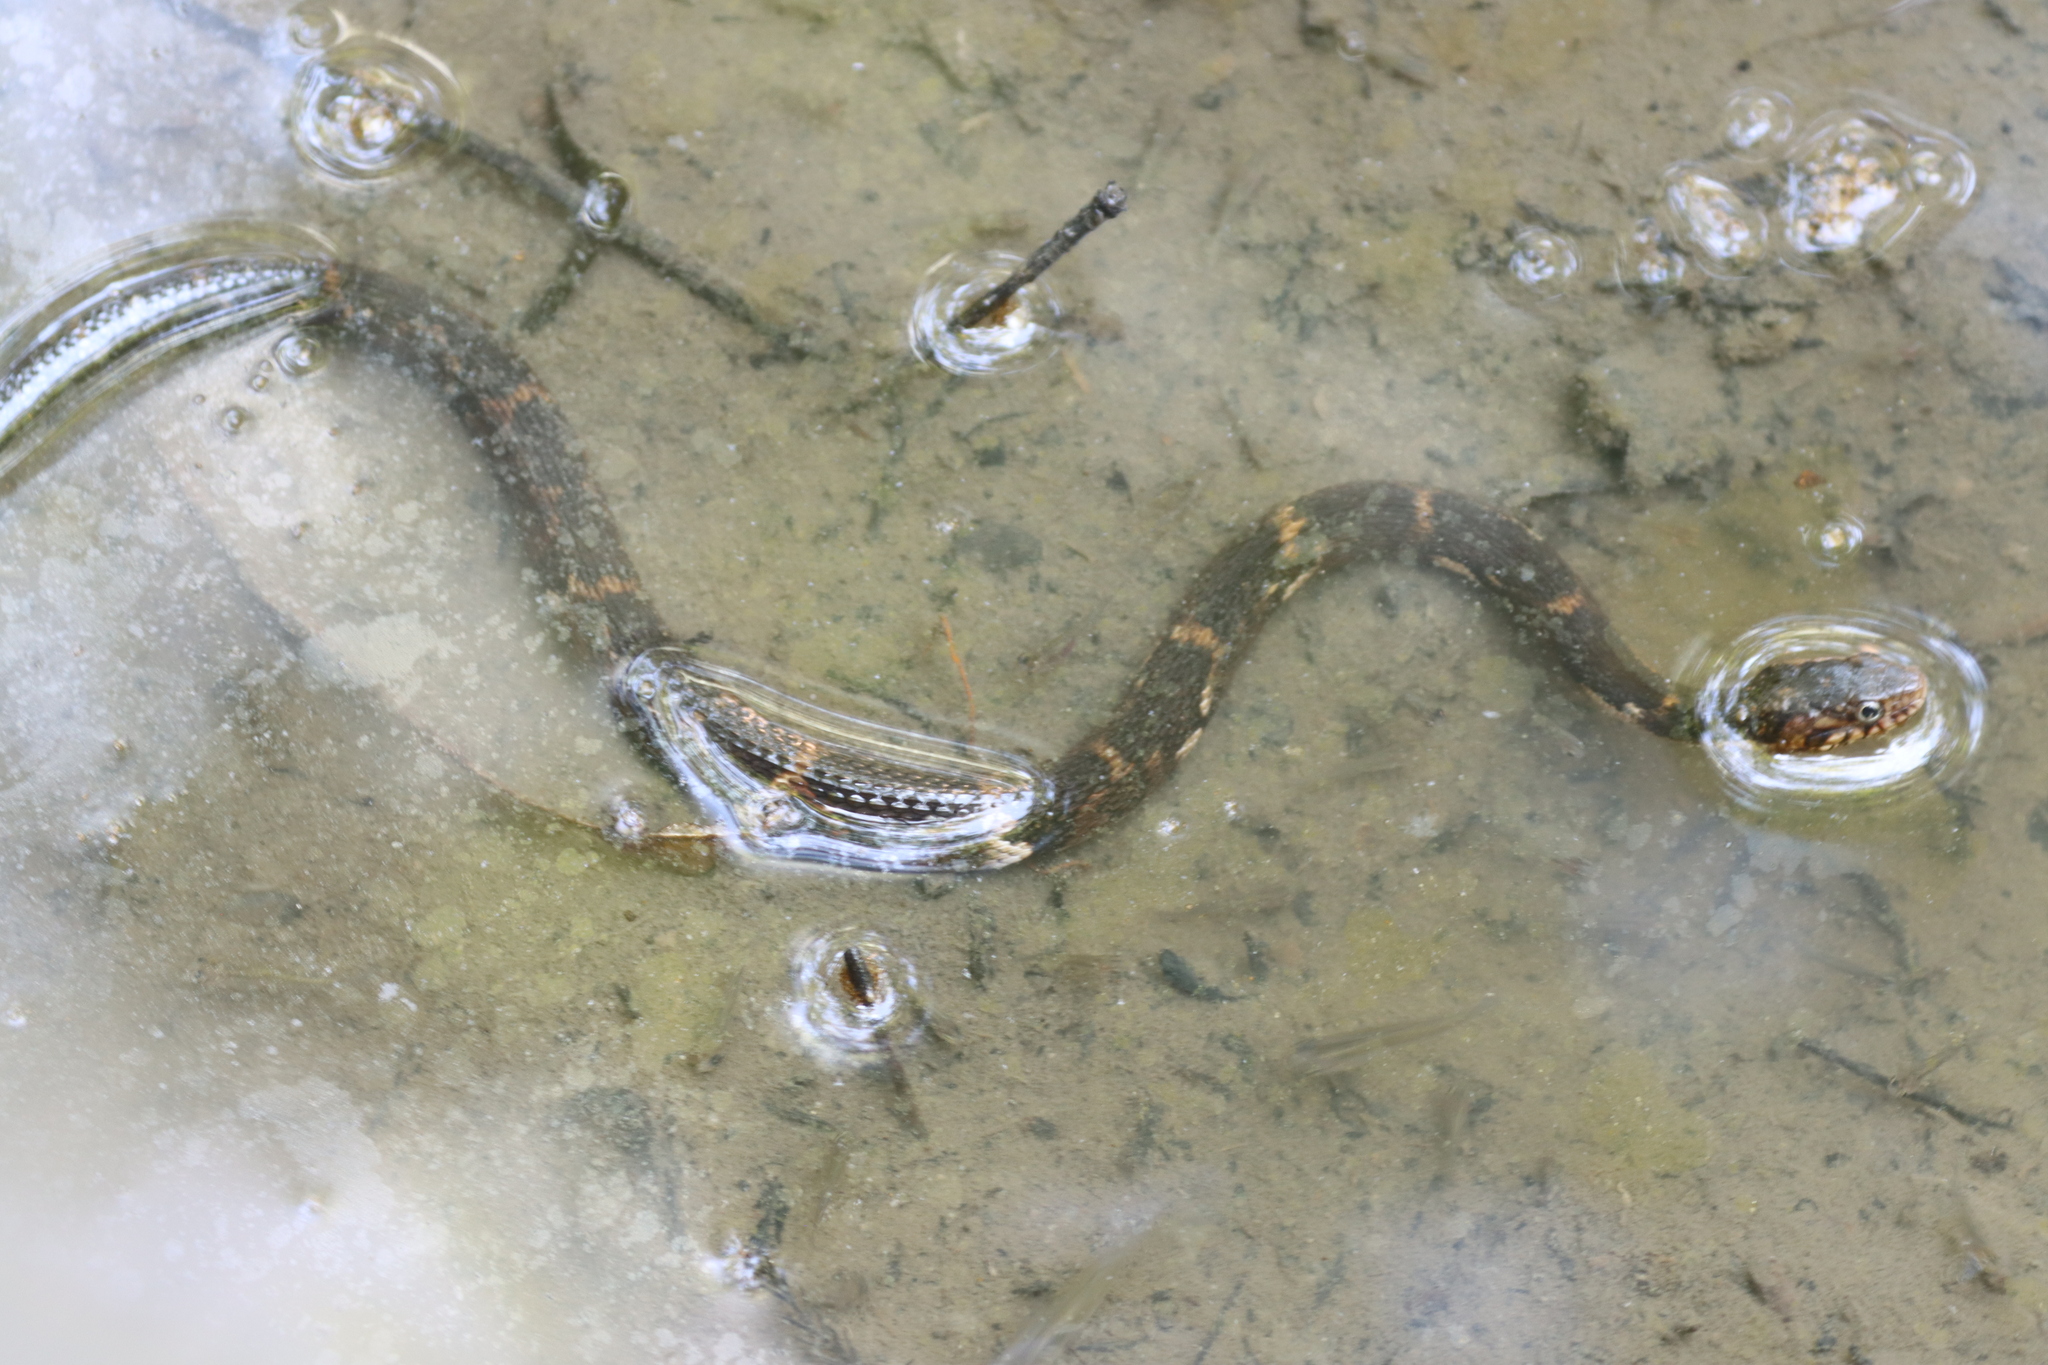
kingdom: Animalia
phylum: Chordata
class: Squamata
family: Colubridae
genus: Nerodia
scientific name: Nerodia fasciata
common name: Southern water snake
